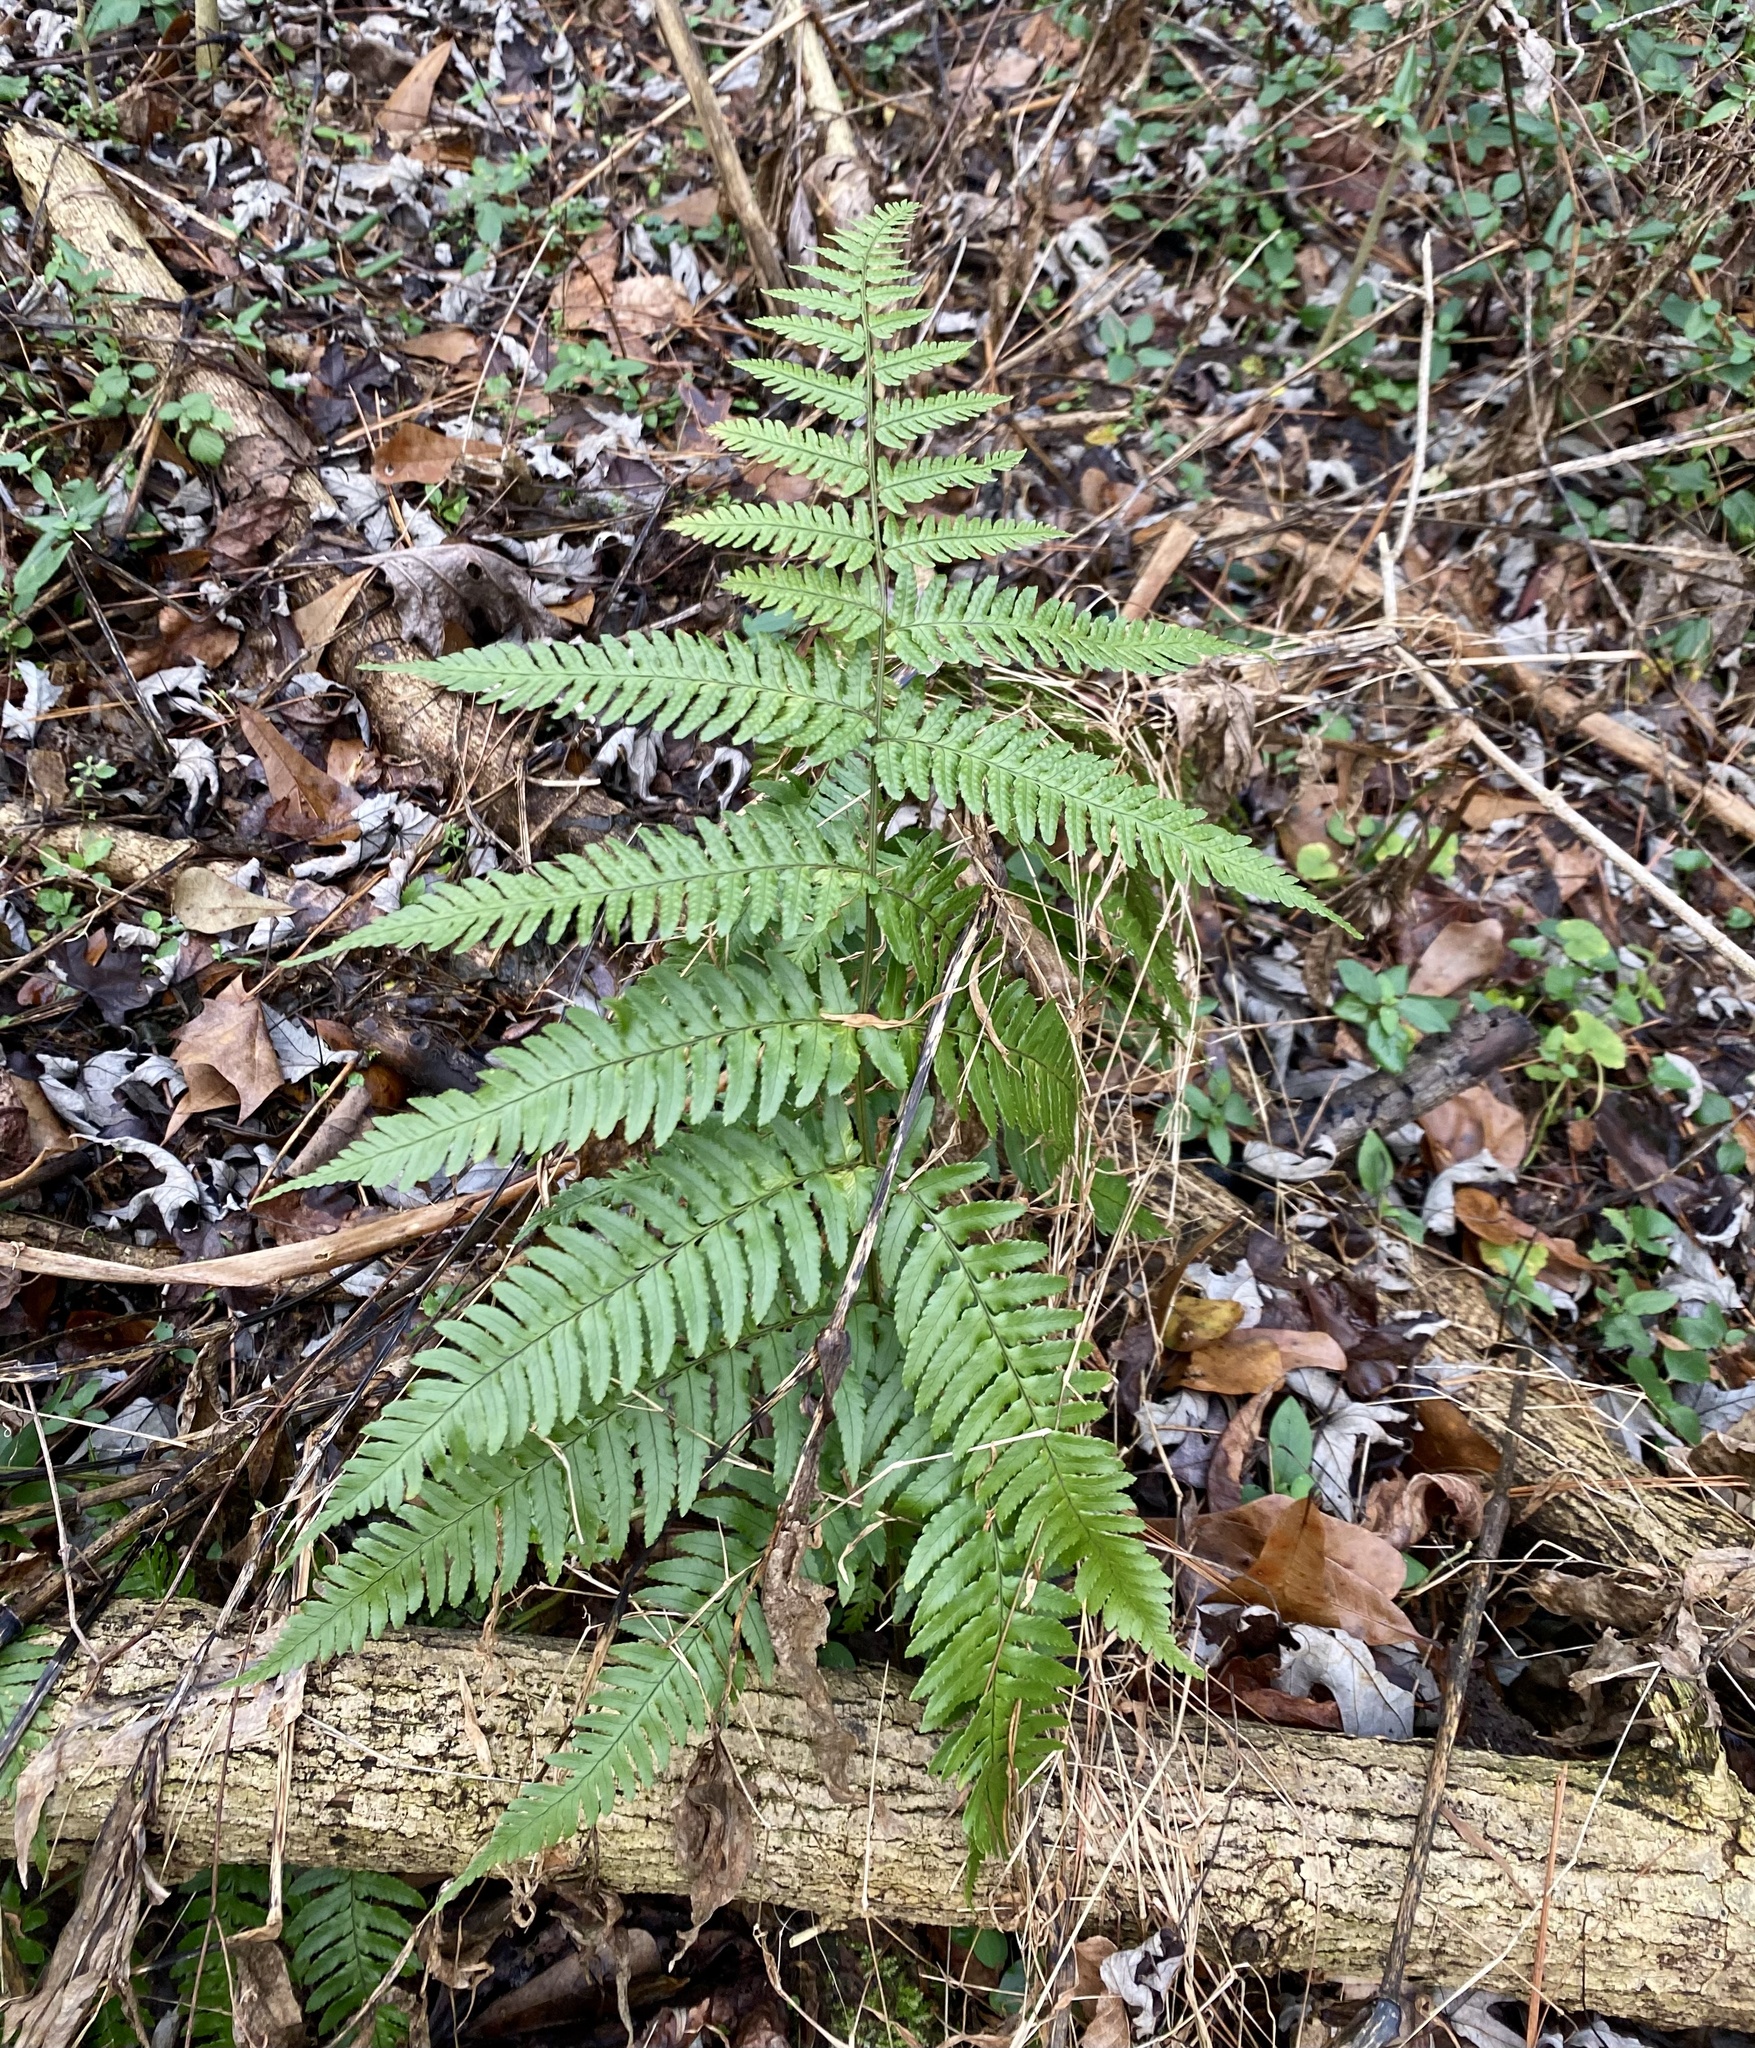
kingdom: Plantae
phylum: Tracheophyta
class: Polypodiopsida
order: Polypodiales
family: Dryopteridaceae
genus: Dryopteris
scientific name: Dryopteris erythrosora
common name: Autumn fern
